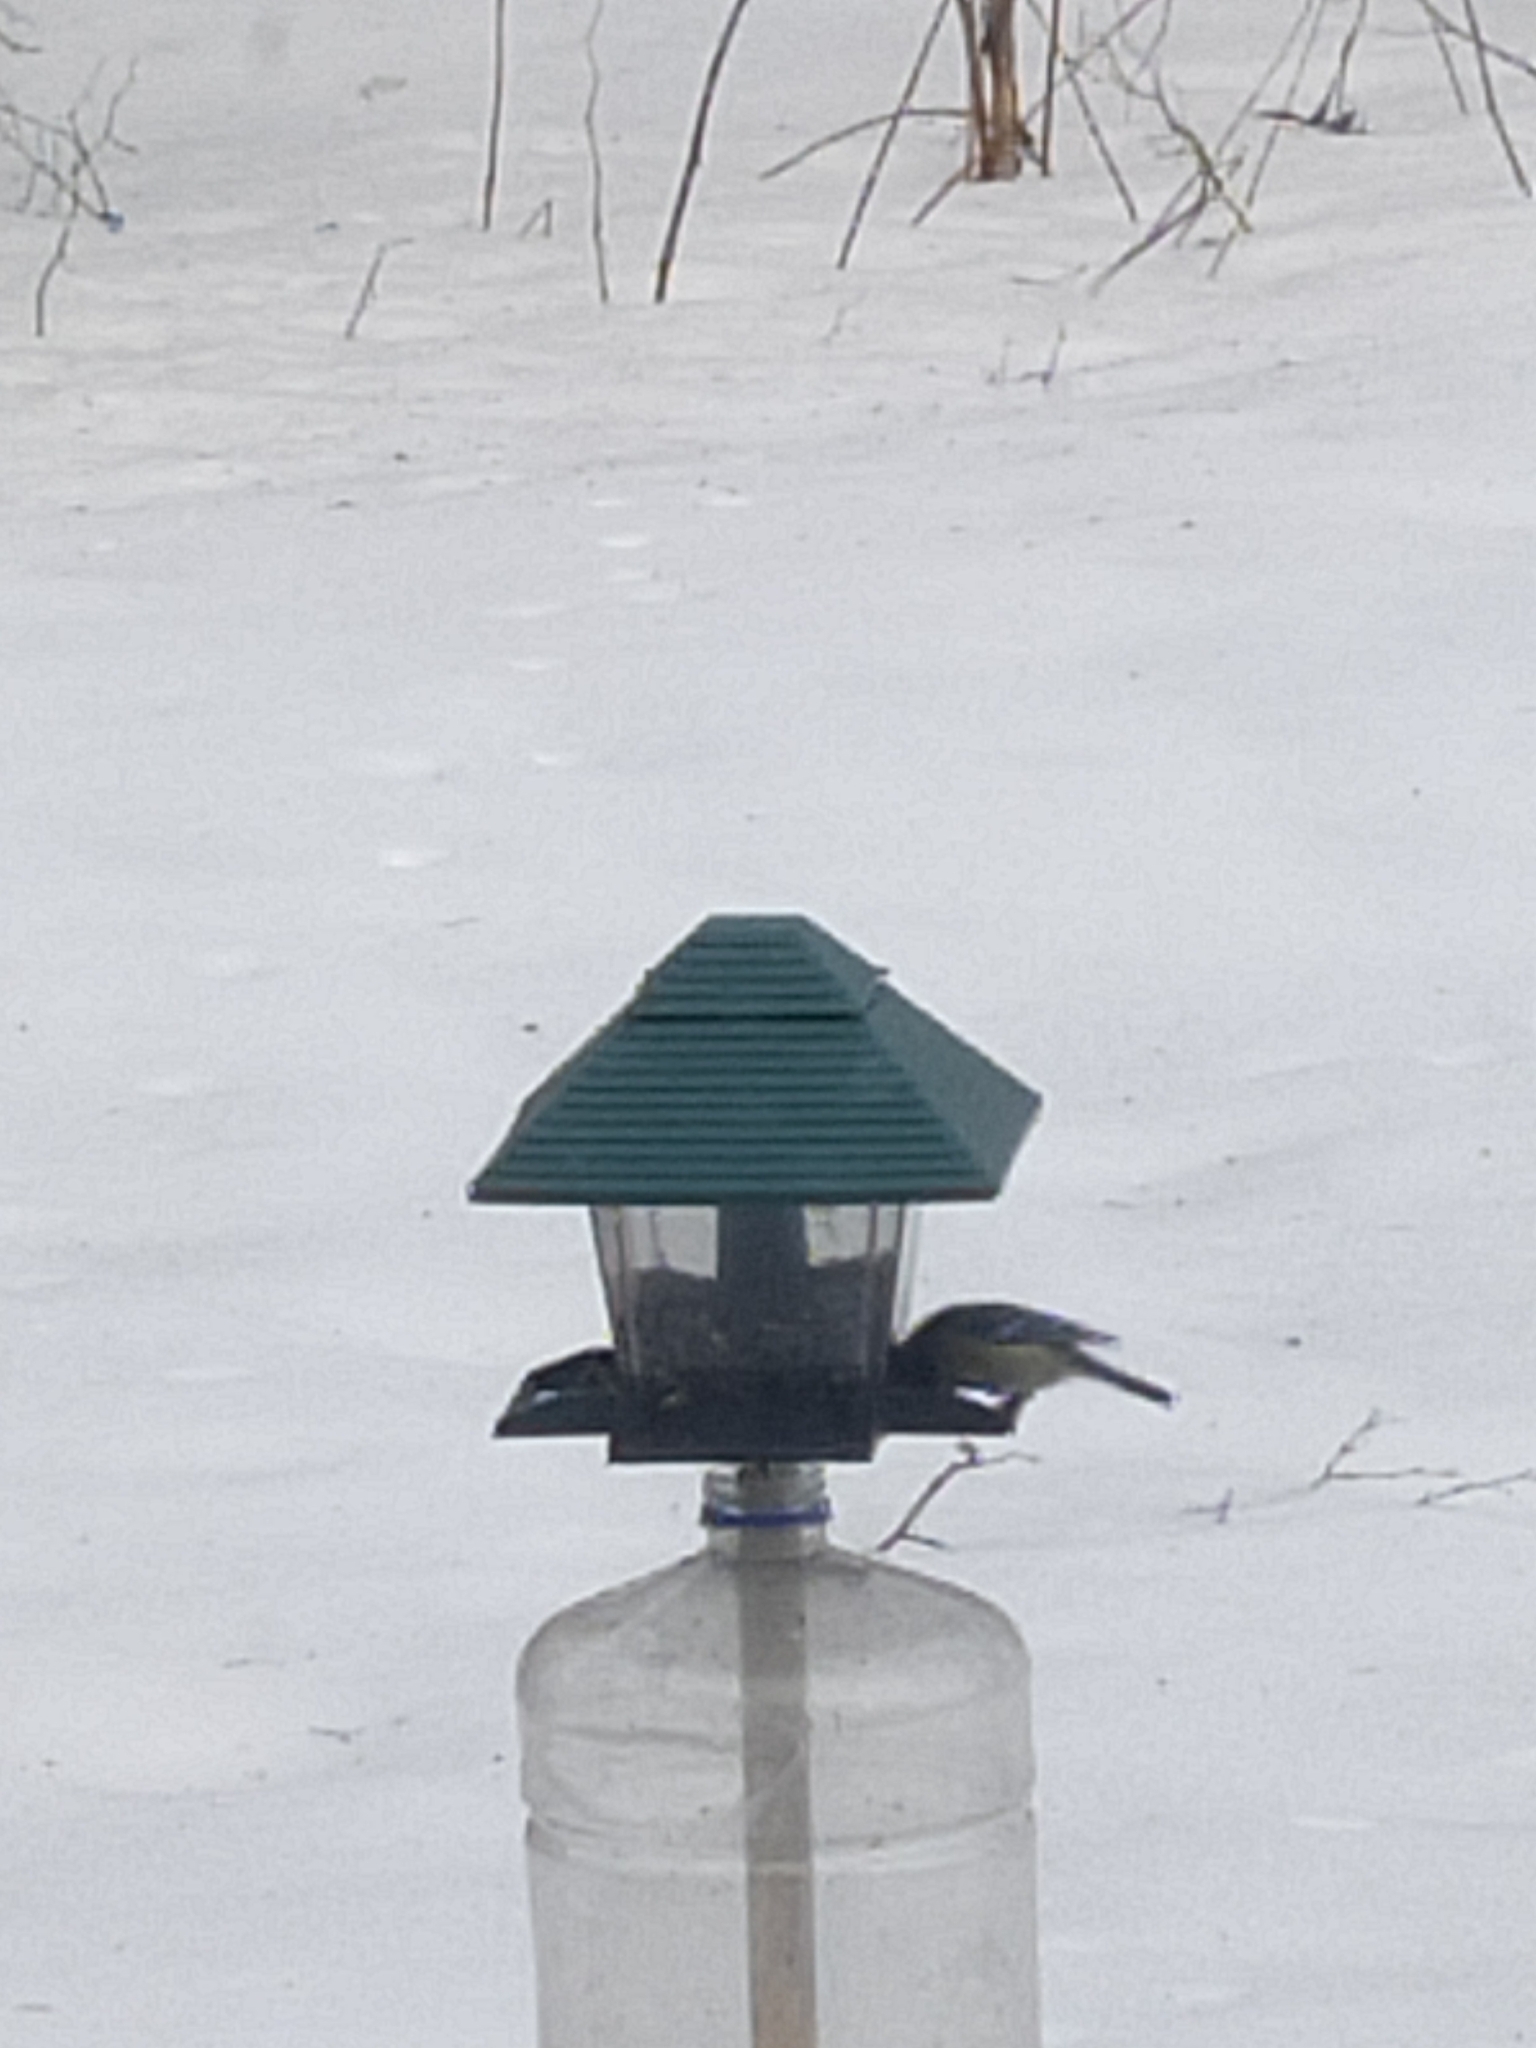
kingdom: Animalia
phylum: Chordata
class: Aves
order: Passeriformes
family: Paridae
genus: Cyanistes
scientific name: Cyanistes caeruleus
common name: Eurasian blue tit
